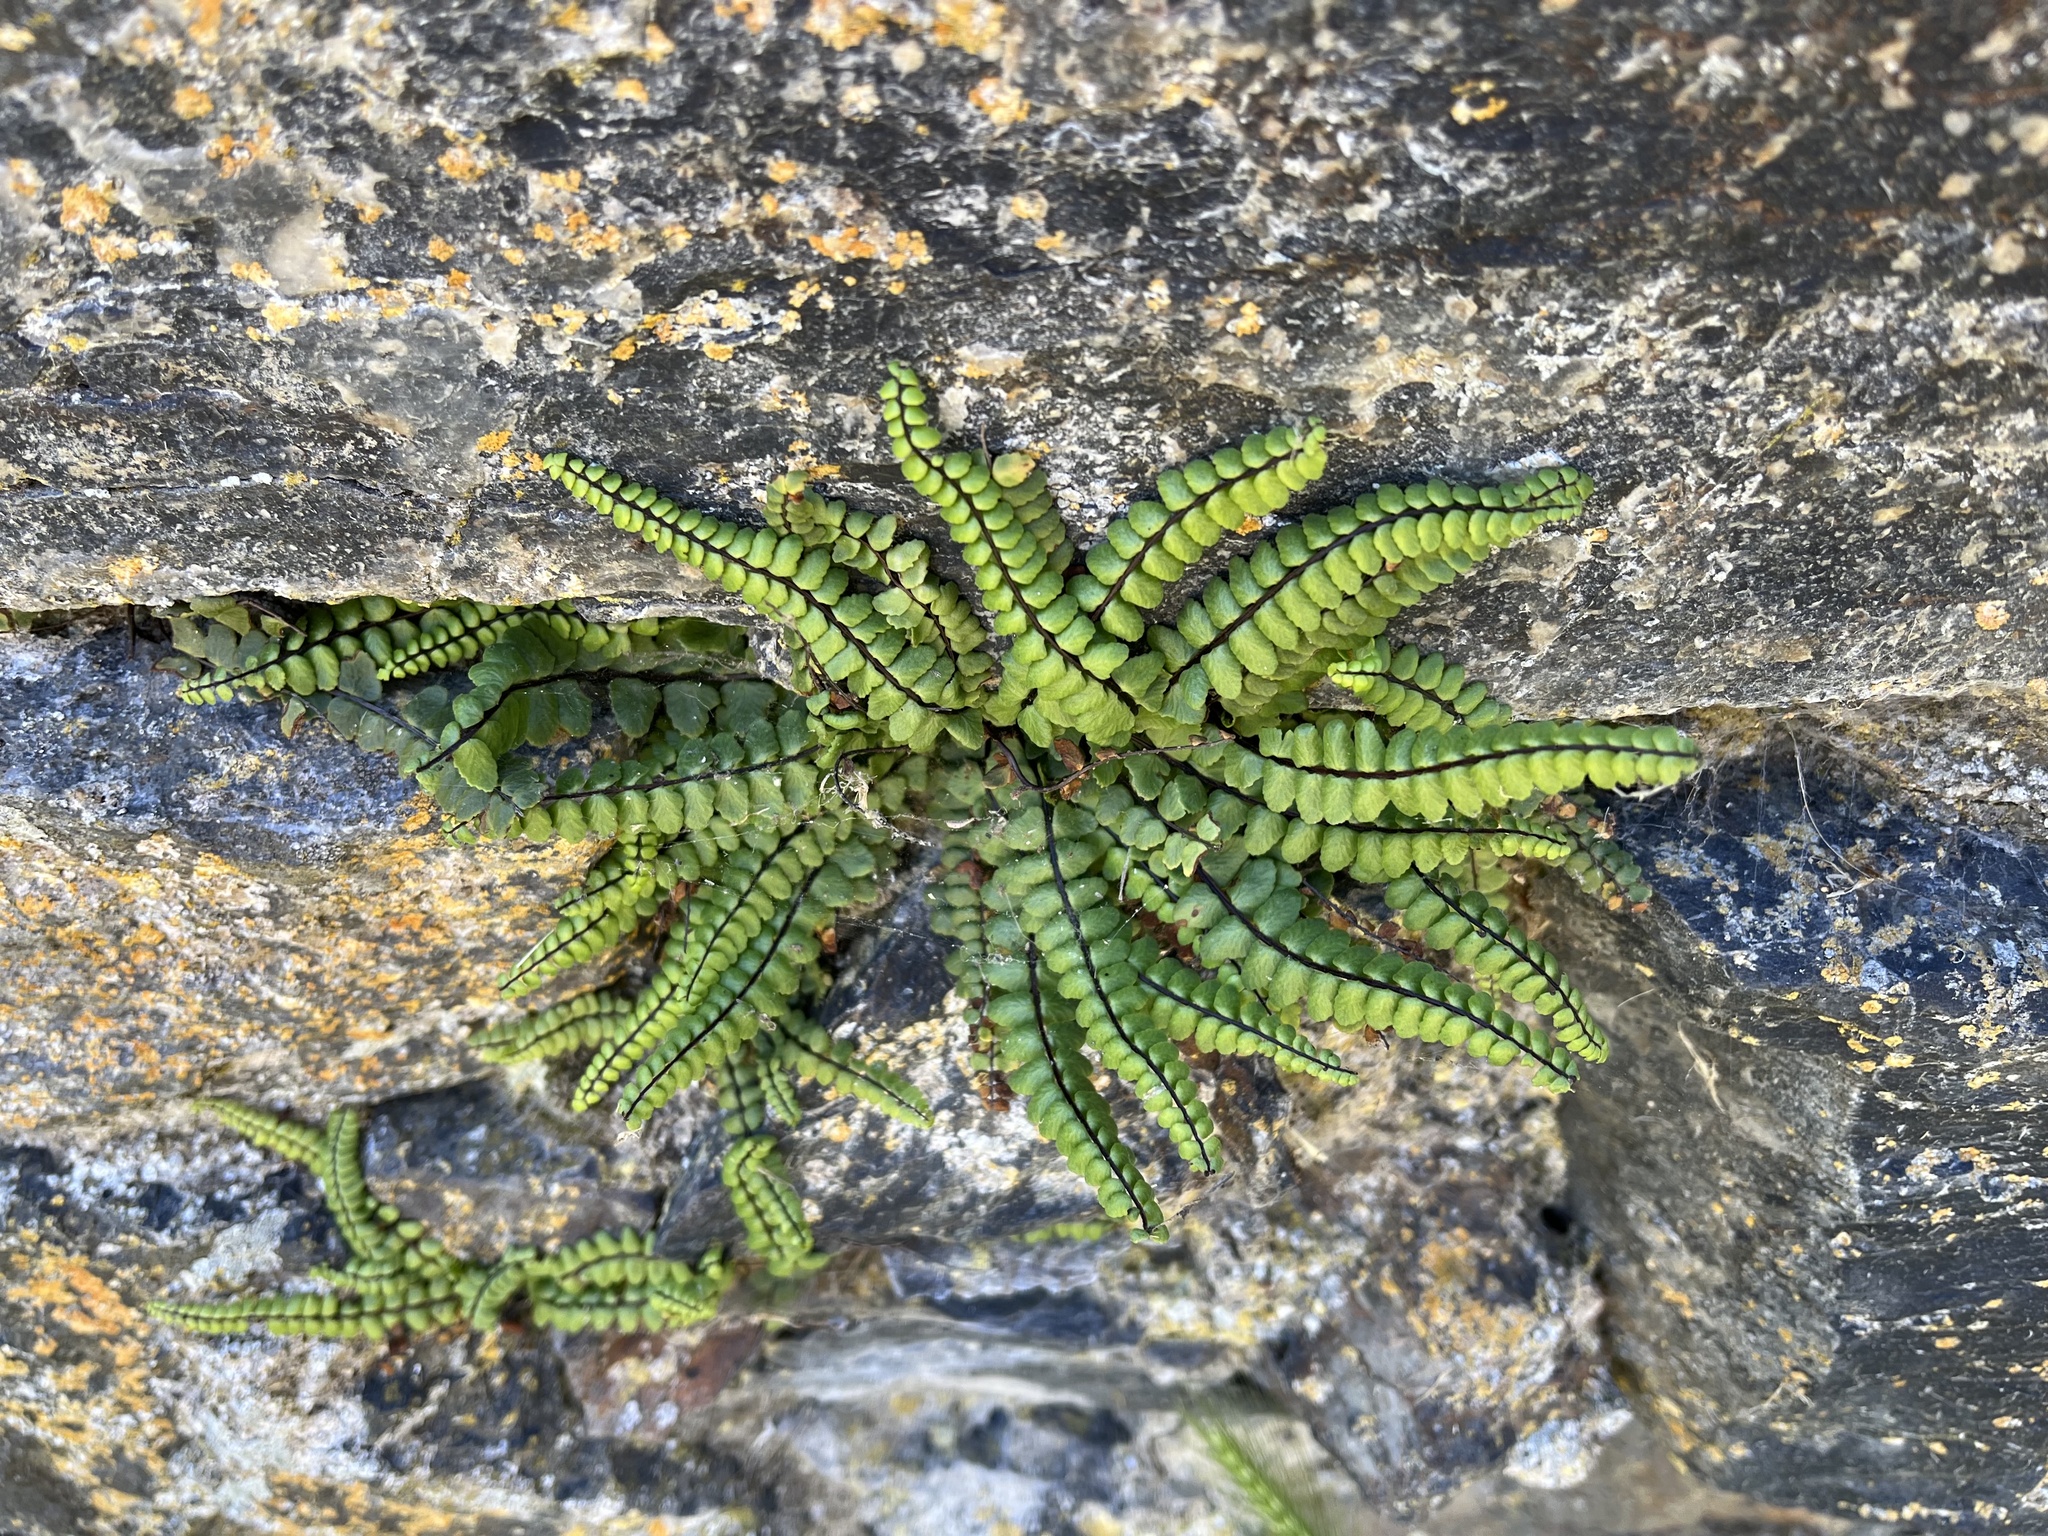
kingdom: Plantae
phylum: Tracheophyta
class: Polypodiopsida
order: Polypodiales
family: Aspleniaceae
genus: Asplenium
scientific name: Asplenium trichomanes
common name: Maidenhair spleenwort
